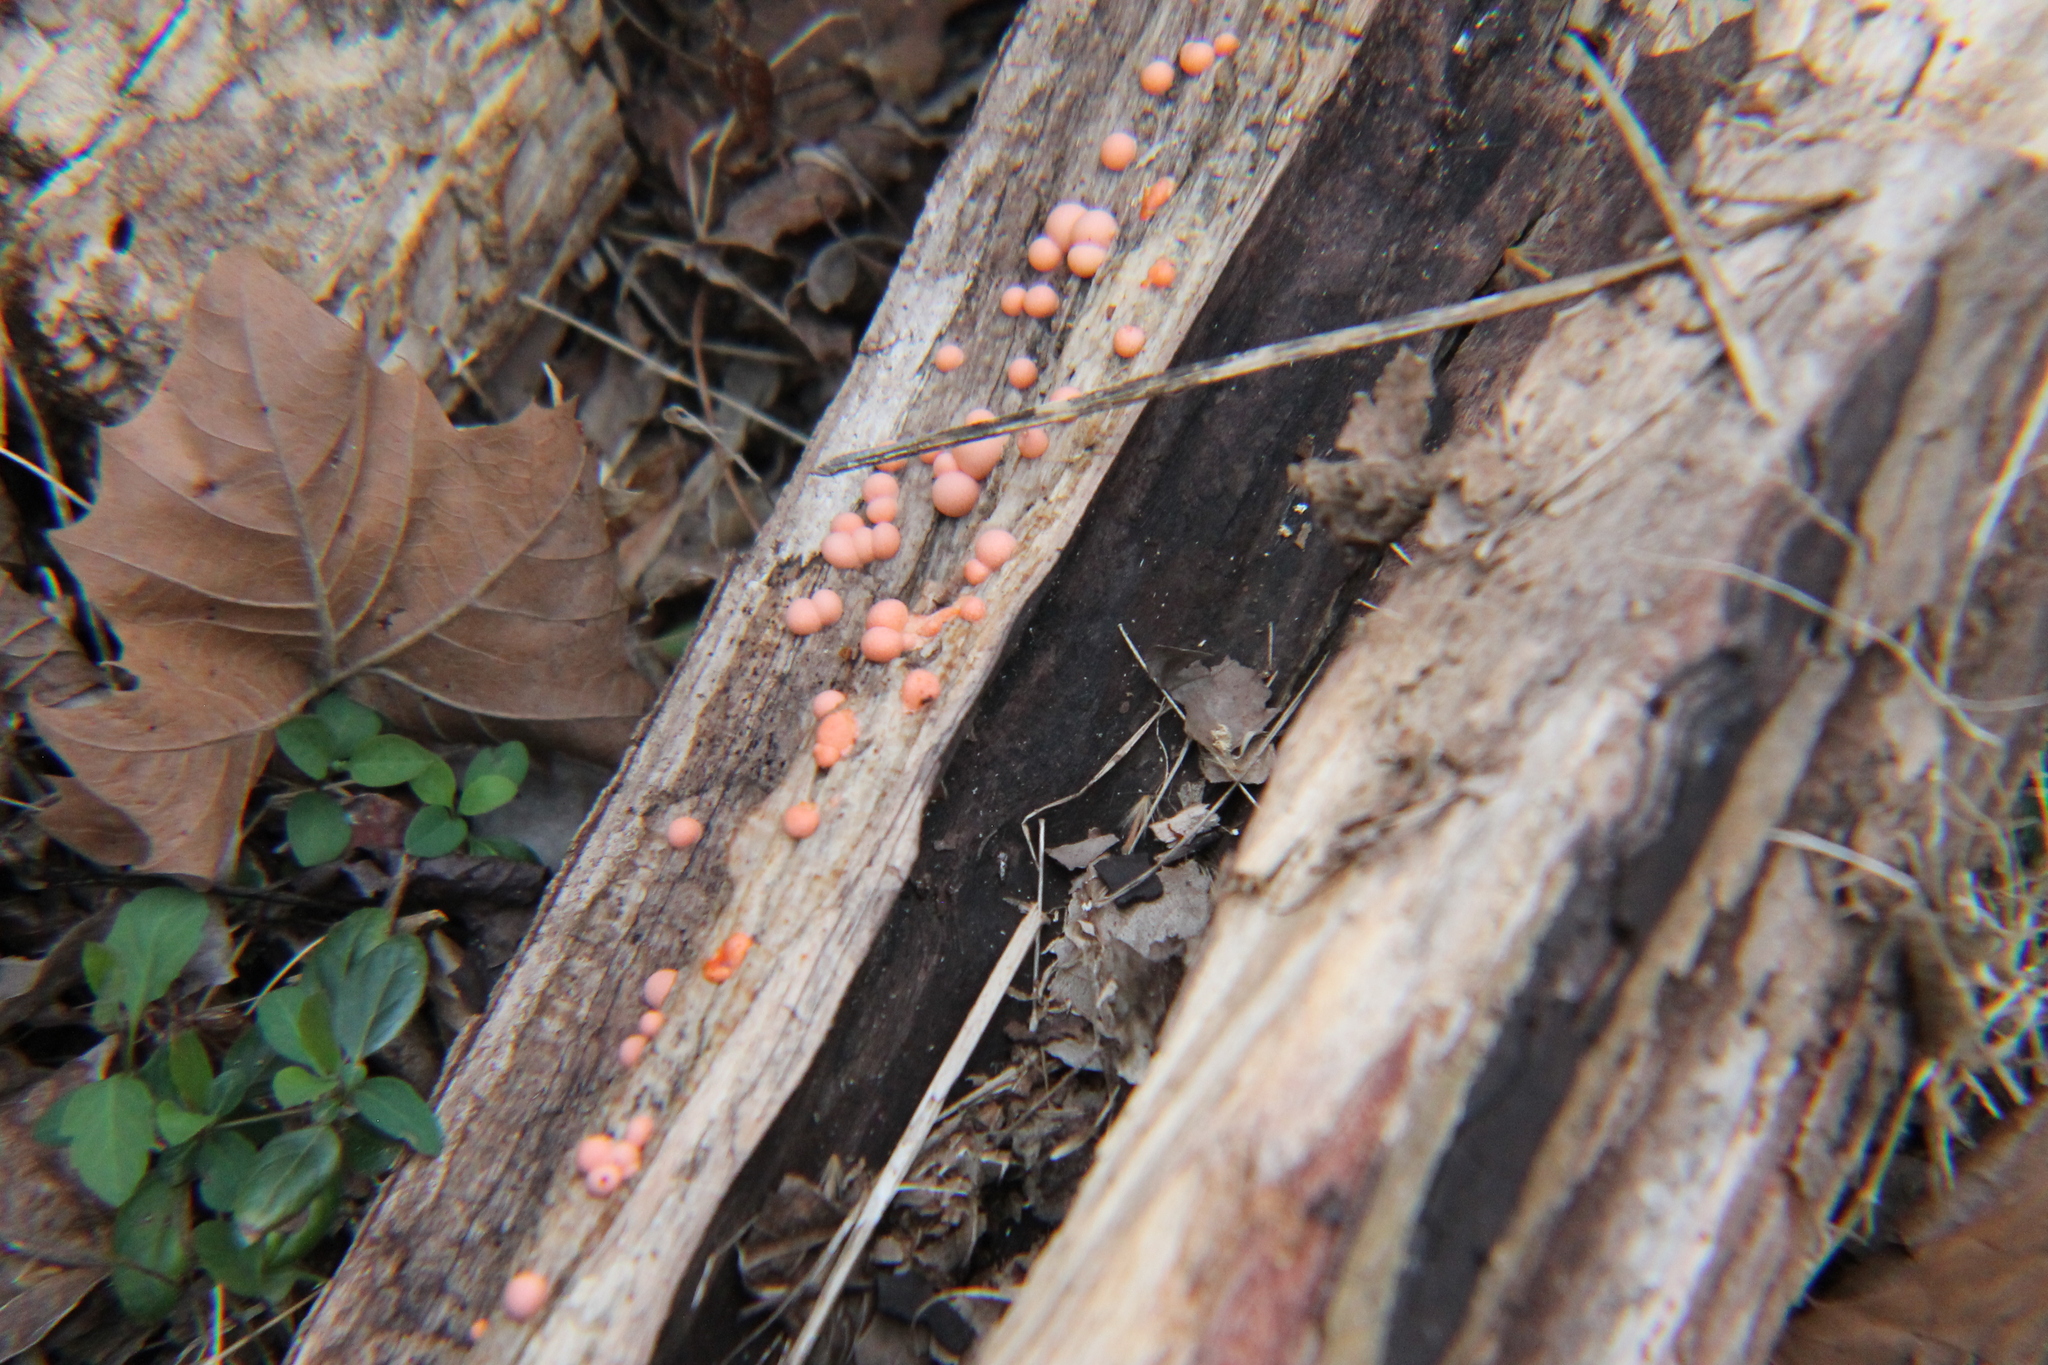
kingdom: Protozoa
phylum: Mycetozoa
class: Myxomycetes
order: Cribrariales
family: Tubiferaceae
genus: Lycogala
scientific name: Lycogala epidendrum
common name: Wolf's milk
